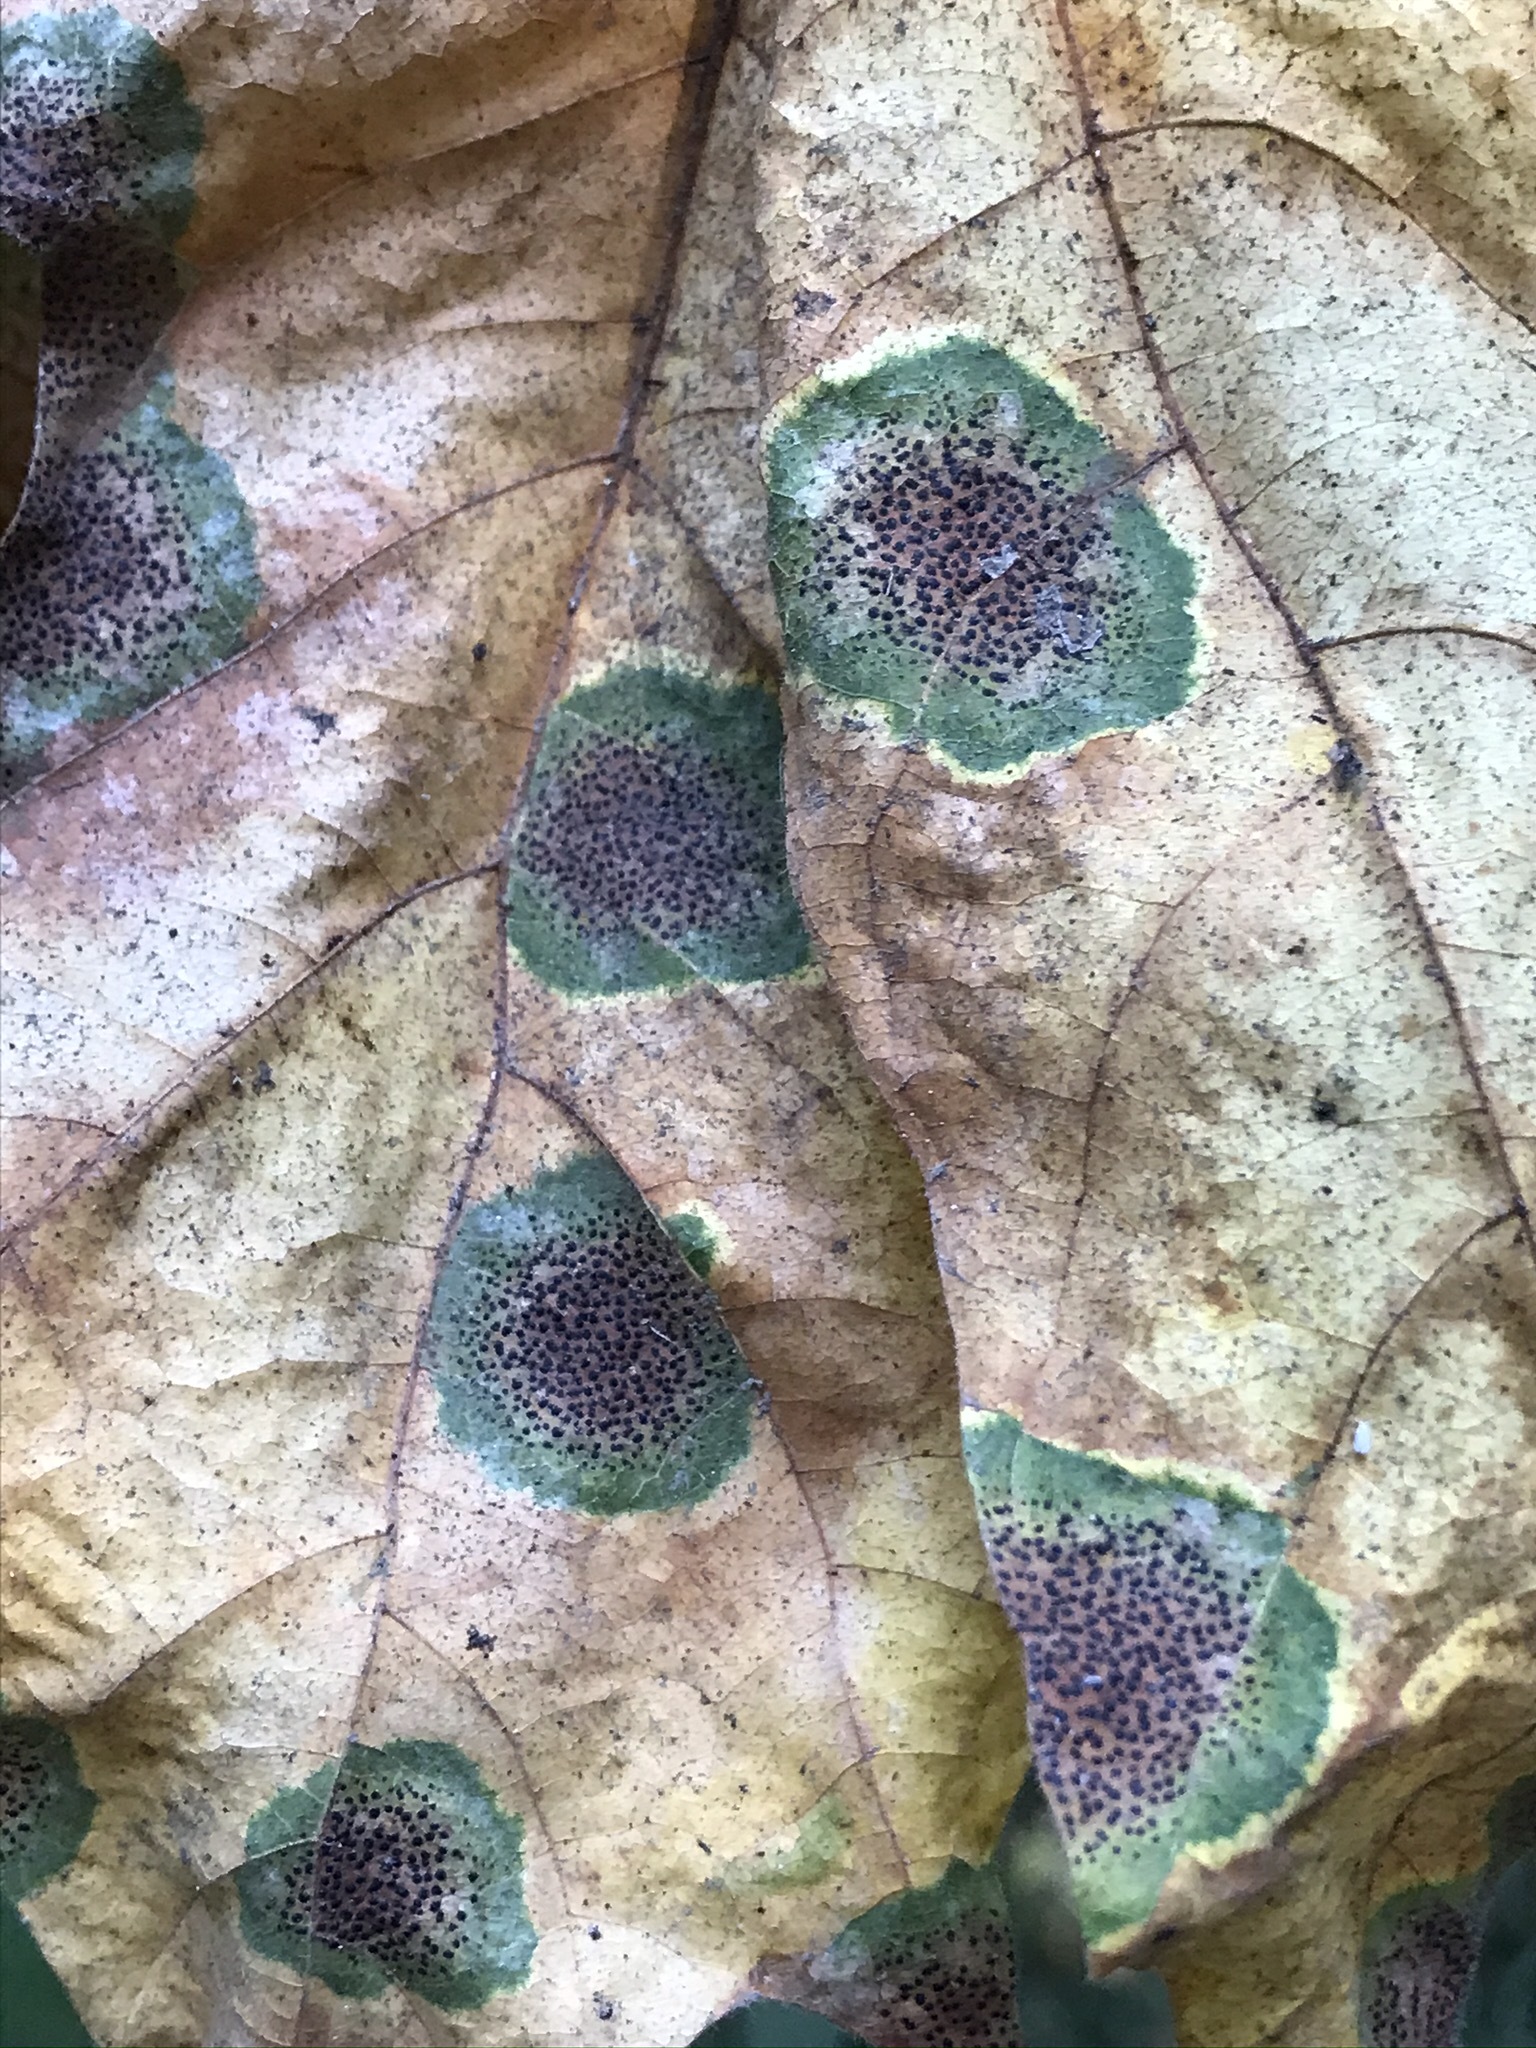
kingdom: Fungi
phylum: Ascomycota
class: Leotiomycetes
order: Rhytismatales
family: Rhytismataceae
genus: Rhytisma
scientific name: Rhytisma punctatum
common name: Speckled tar spot
